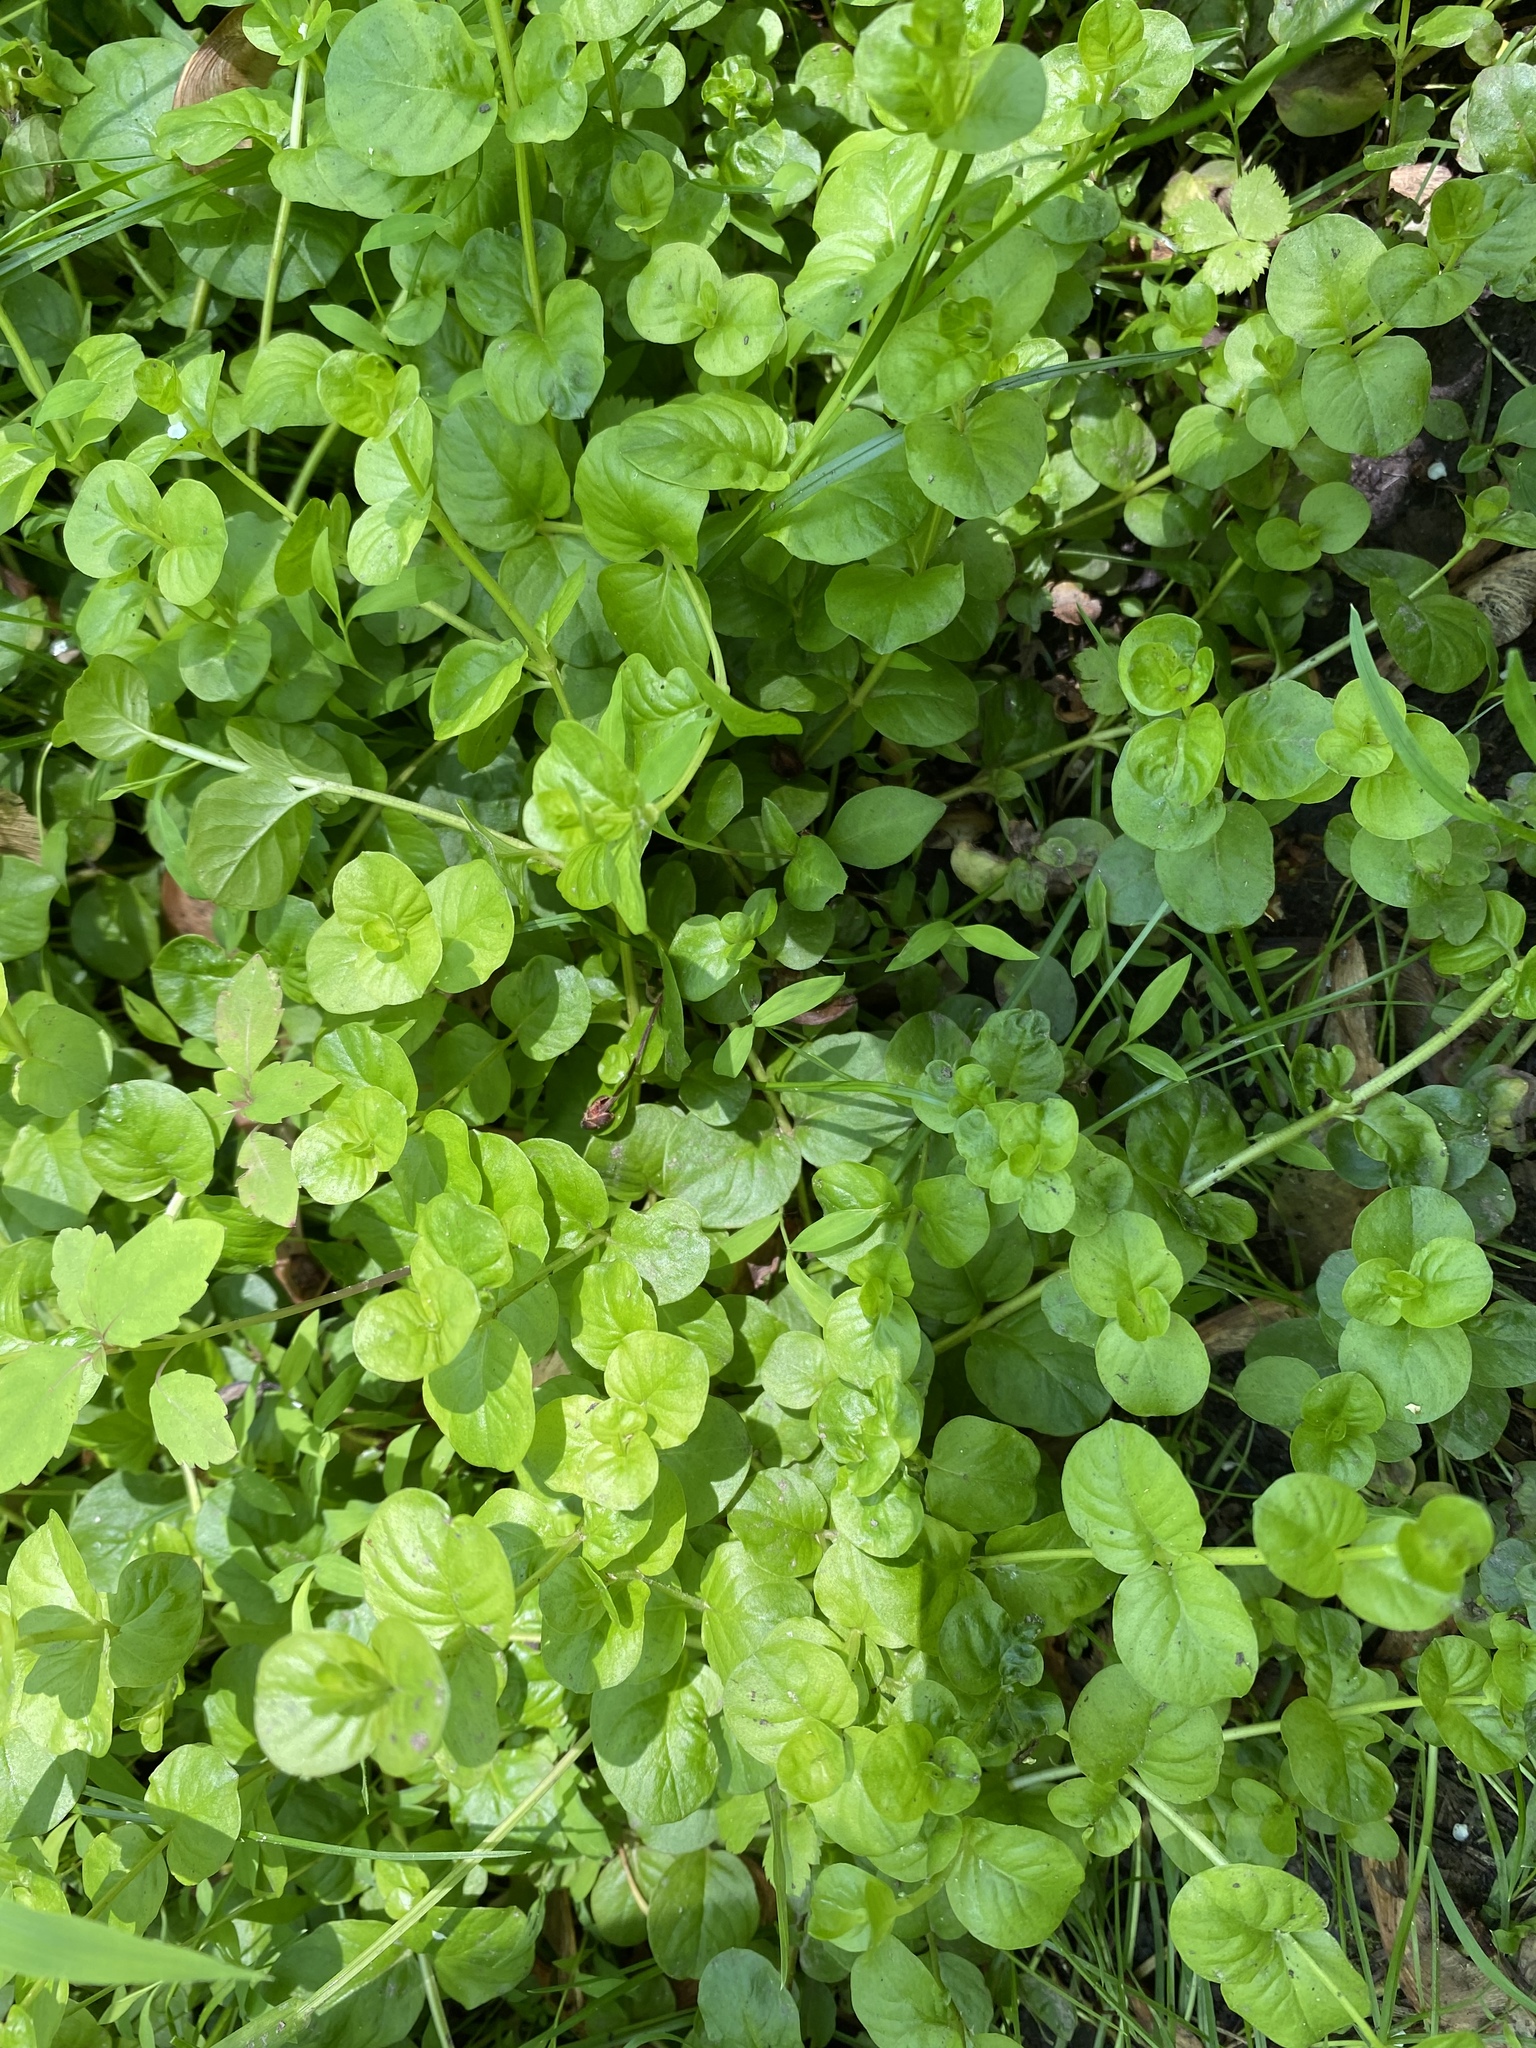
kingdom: Plantae
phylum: Tracheophyta
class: Magnoliopsida
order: Ericales
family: Primulaceae
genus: Lysimachia
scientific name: Lysimachia nummularia
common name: Moneywort
